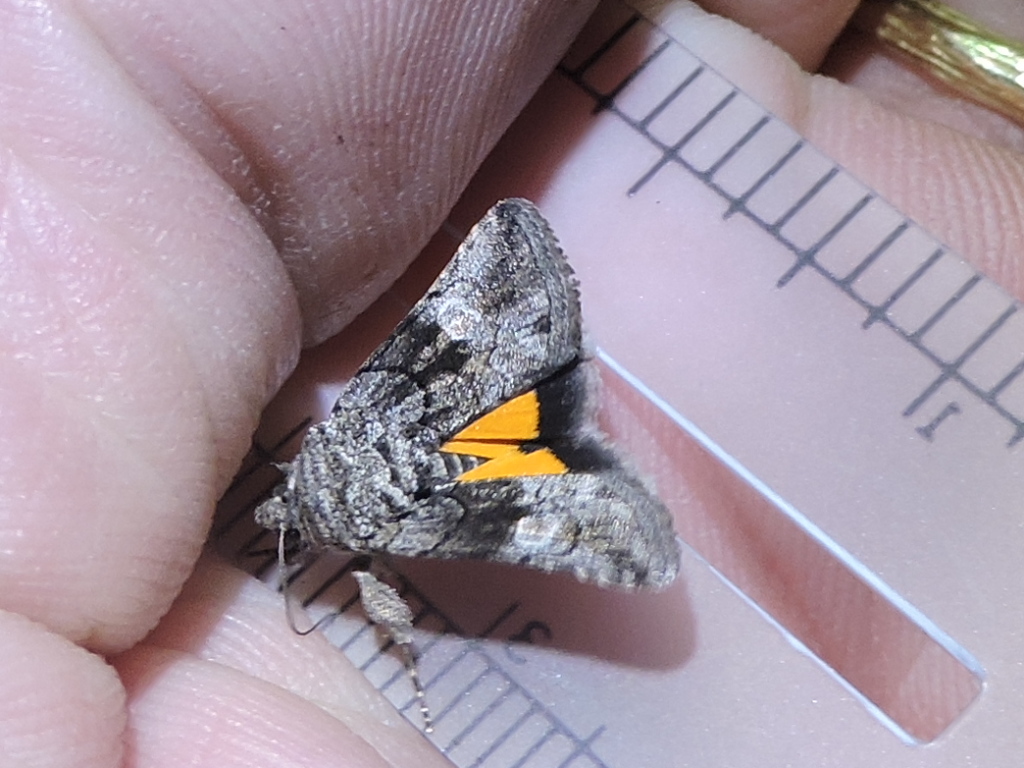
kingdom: Animalia
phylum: Arthropoda
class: Insecta
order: Lepidoptera
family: Noctuidae
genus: Copanarta
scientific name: Copanarta aurea
